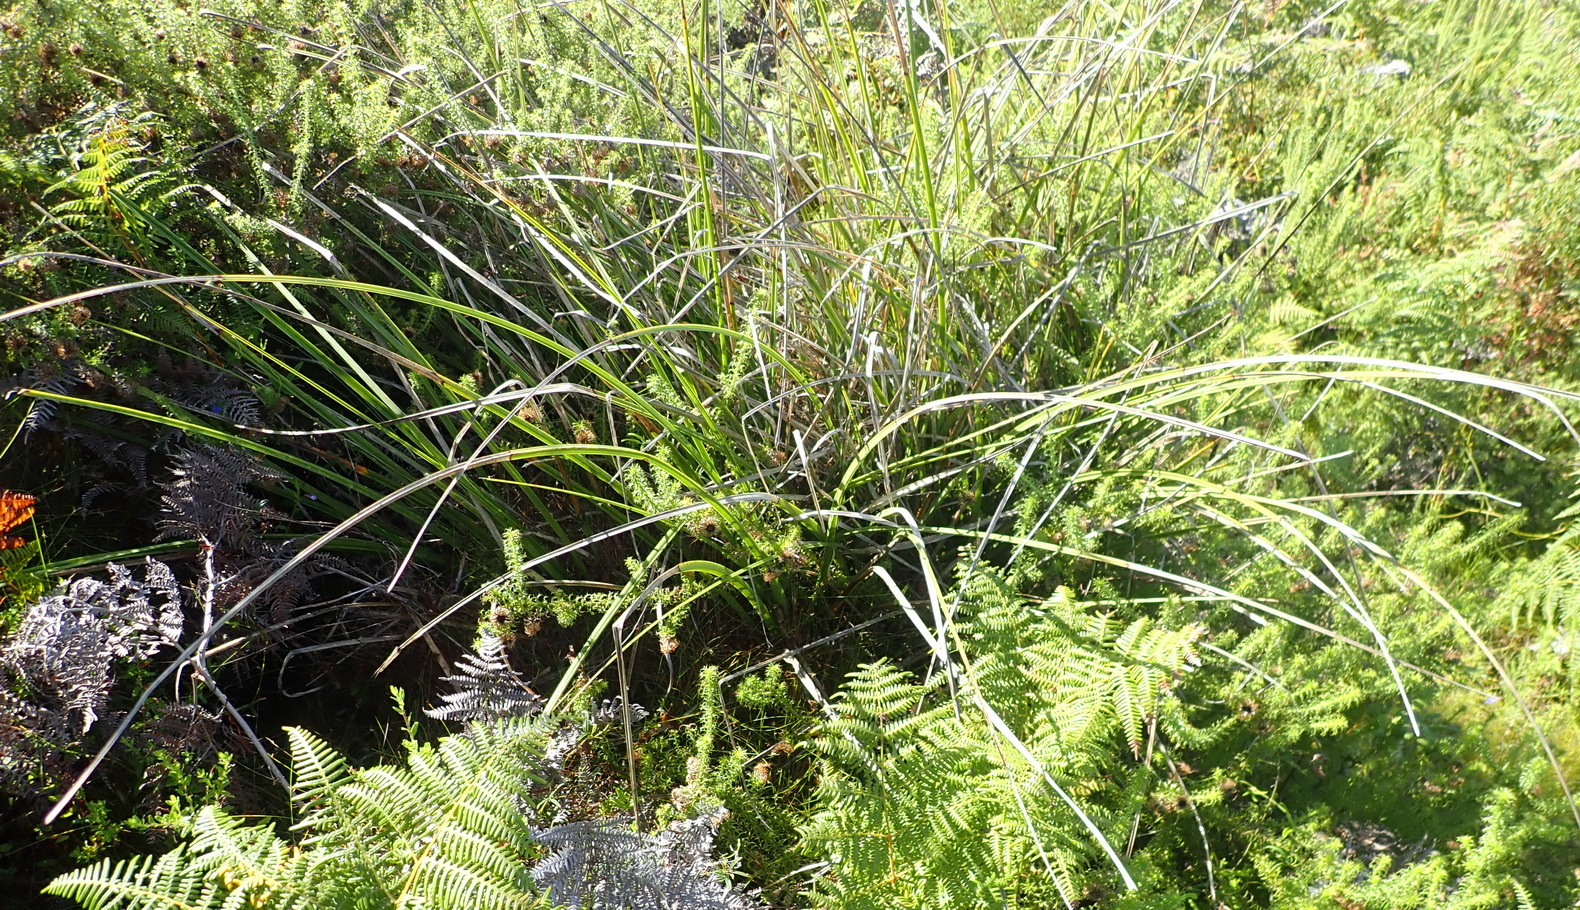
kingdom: Plantae
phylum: Tracheophyta
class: Liliopsida
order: Asparagales
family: Asphodelaceae
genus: Kniphofia
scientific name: Kniphofia uvaria
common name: Red-hot-poker
